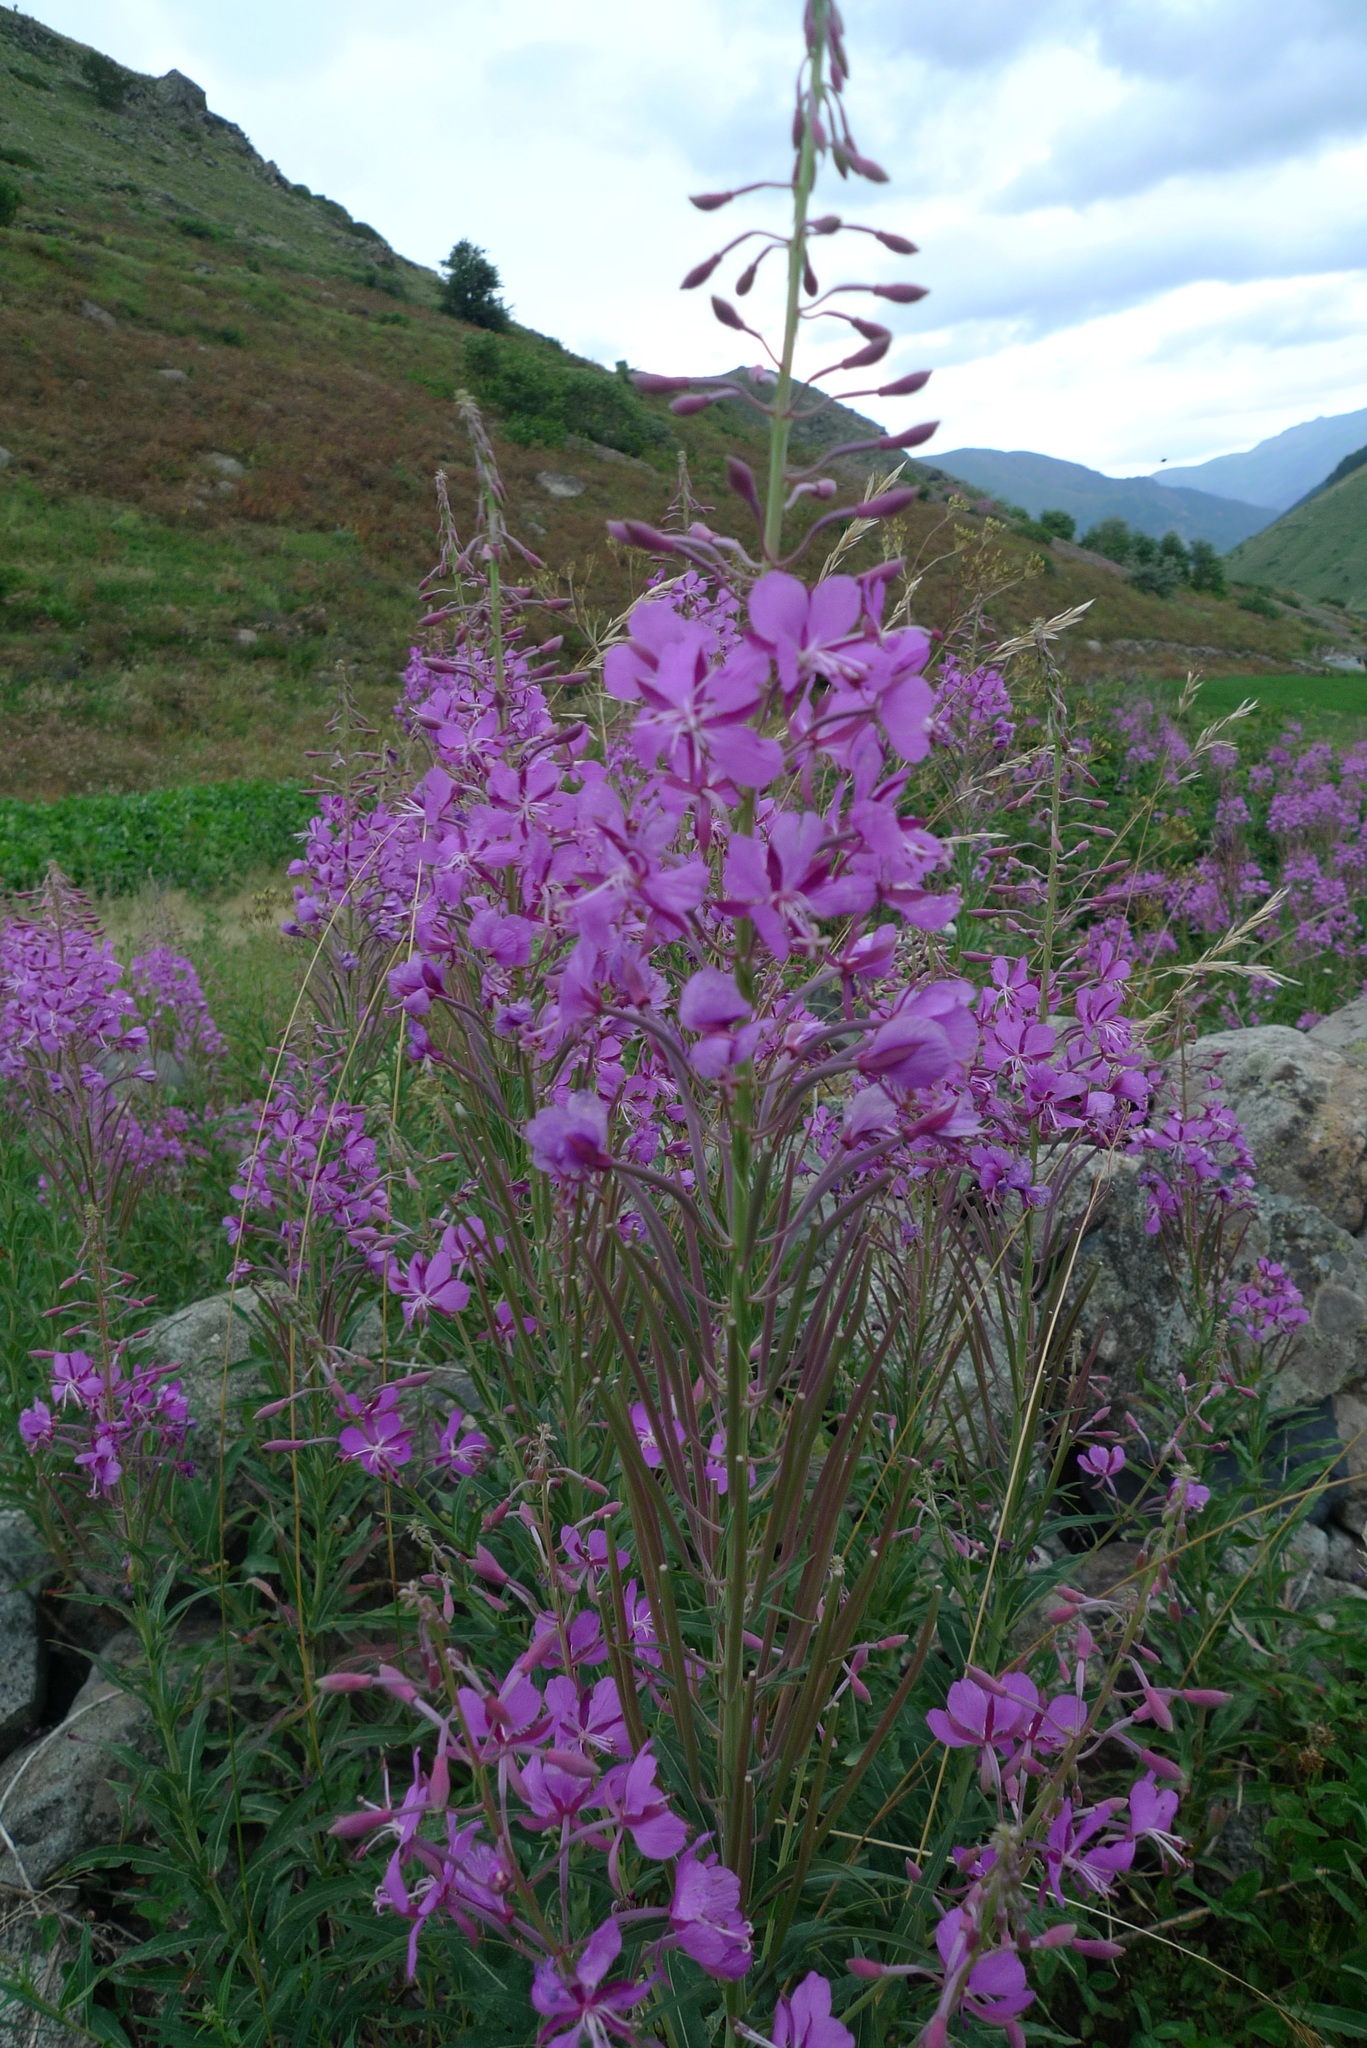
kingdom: Plantae
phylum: Tracheophyta
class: Magnoliopsida
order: Myrtales
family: Onagraceae
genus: Chamaenerion
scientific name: Chamaenerion angustifolium
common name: Fireweed
